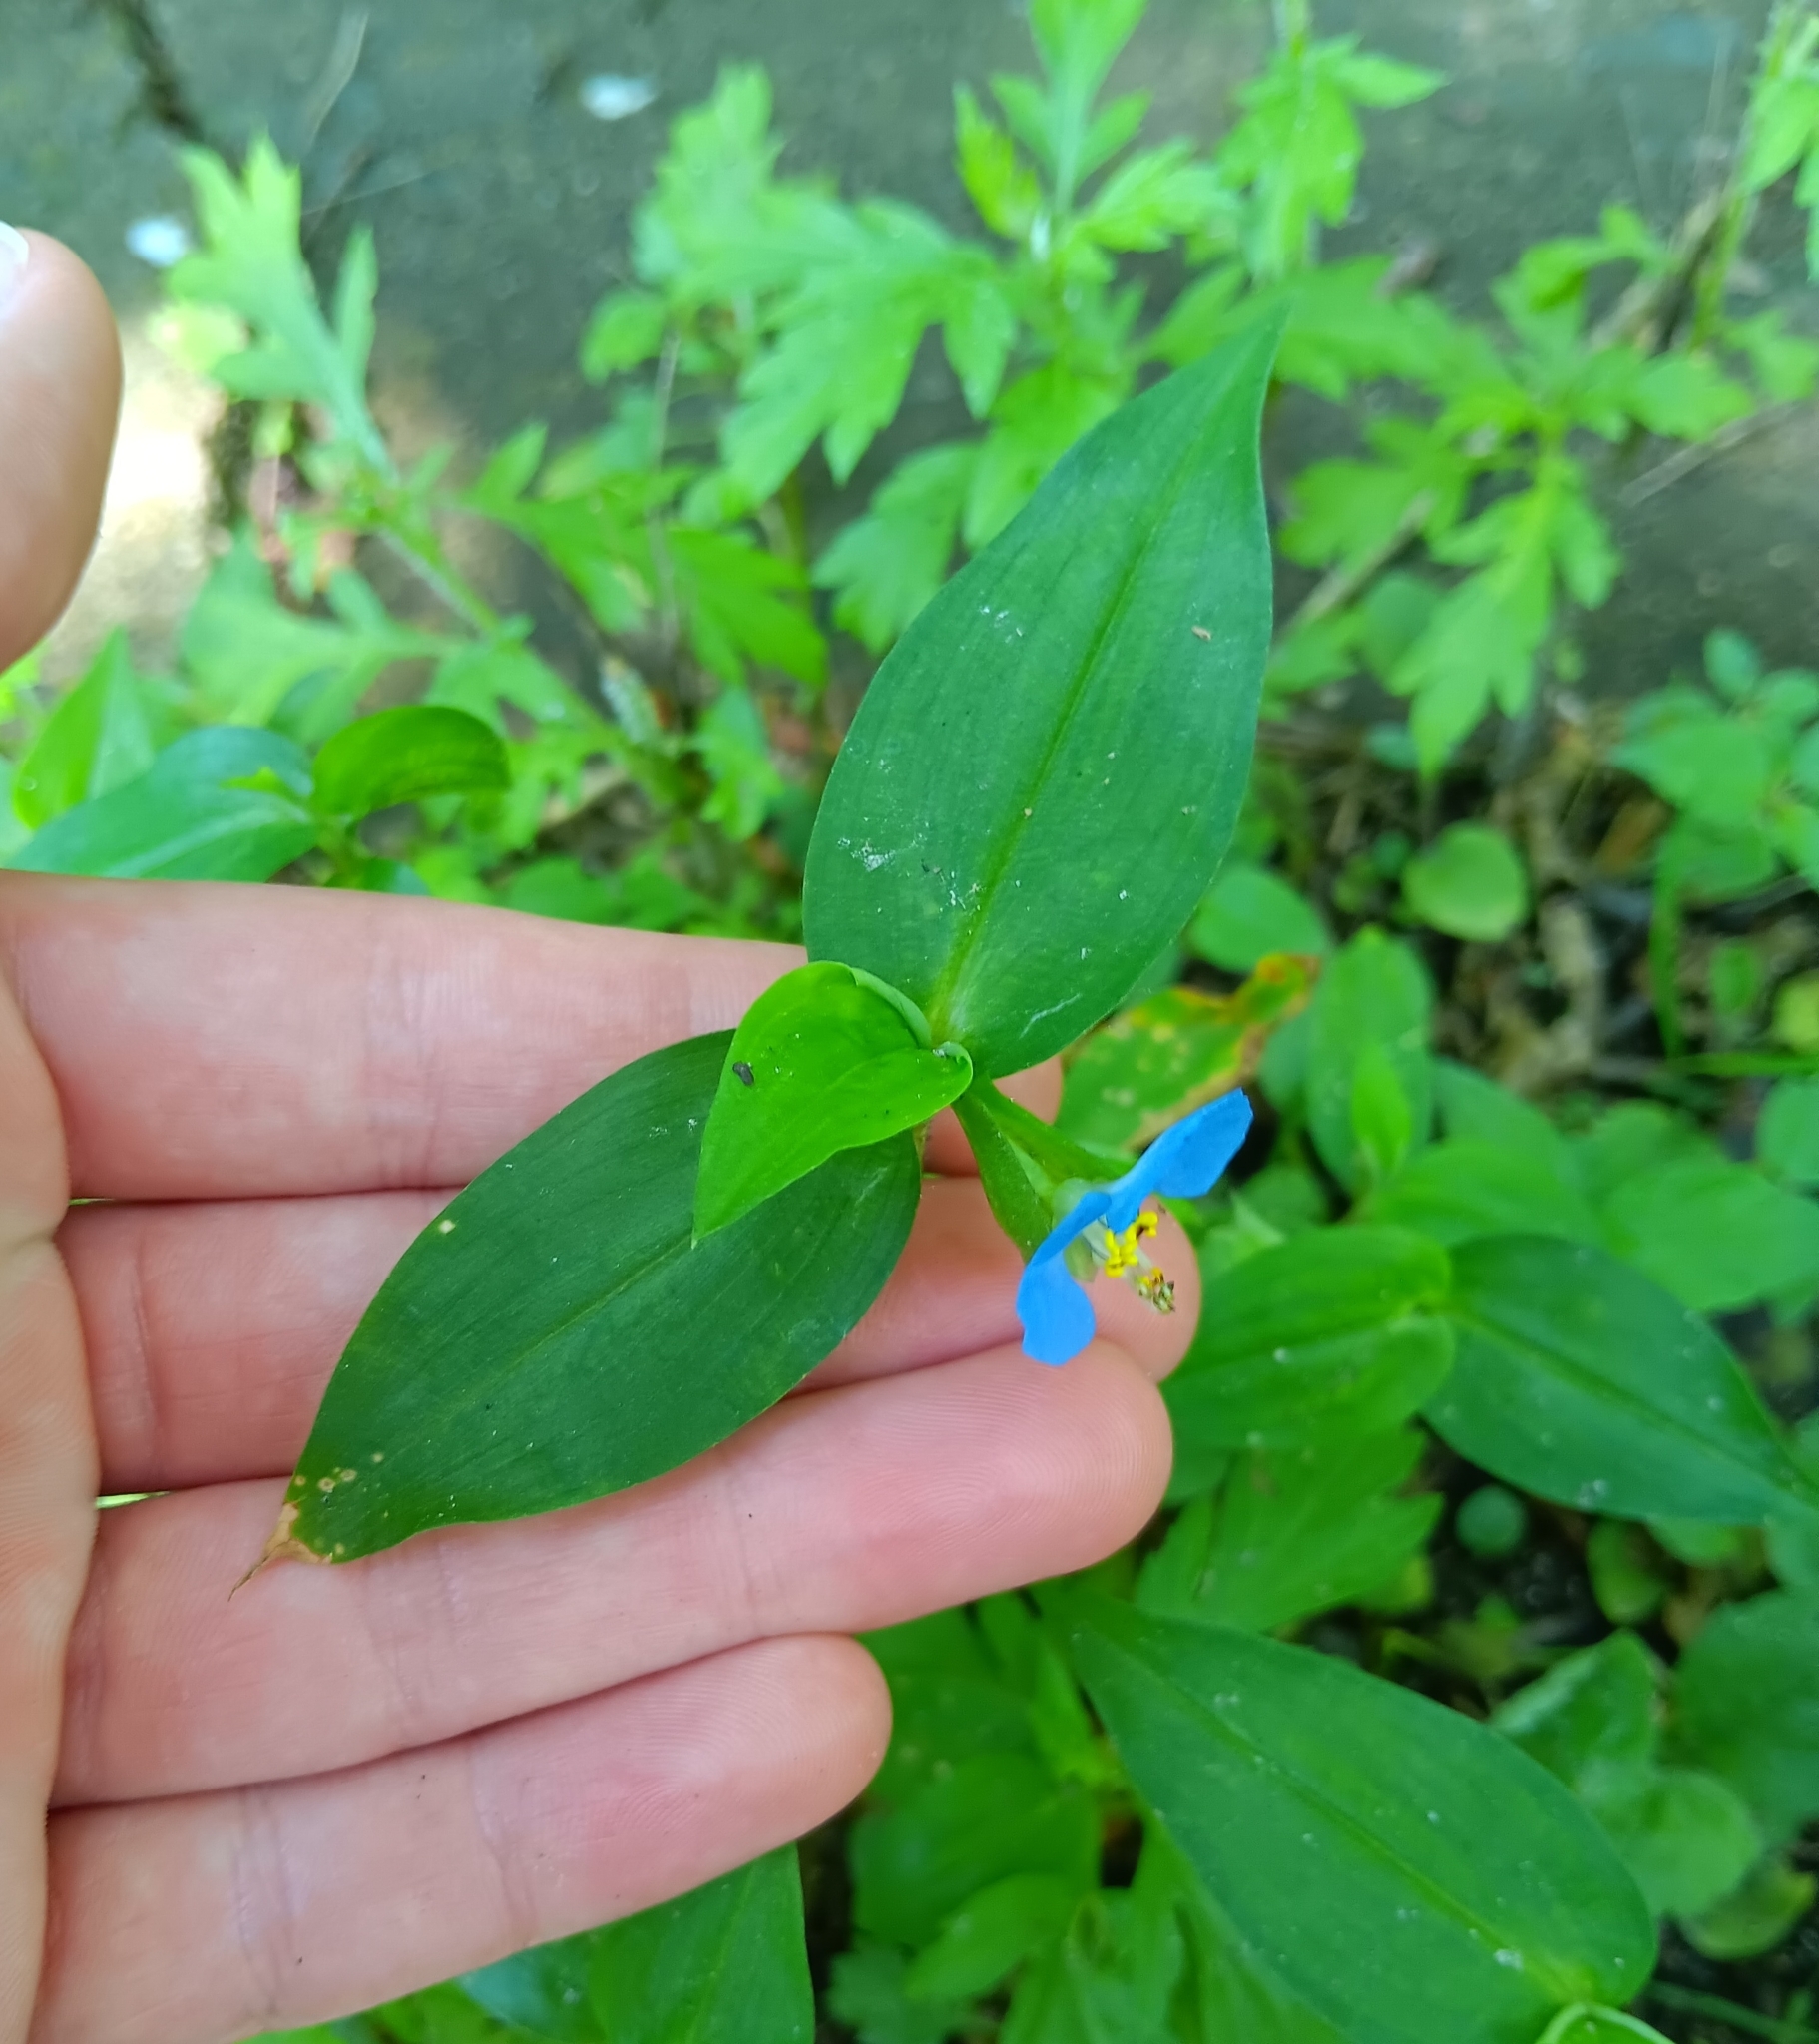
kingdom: Plantae
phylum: Tracheophyta
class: Liliopsida
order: Commelinales
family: Commelinaceae
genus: Commelina
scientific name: Commelina communis
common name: Asiatic dayflower
